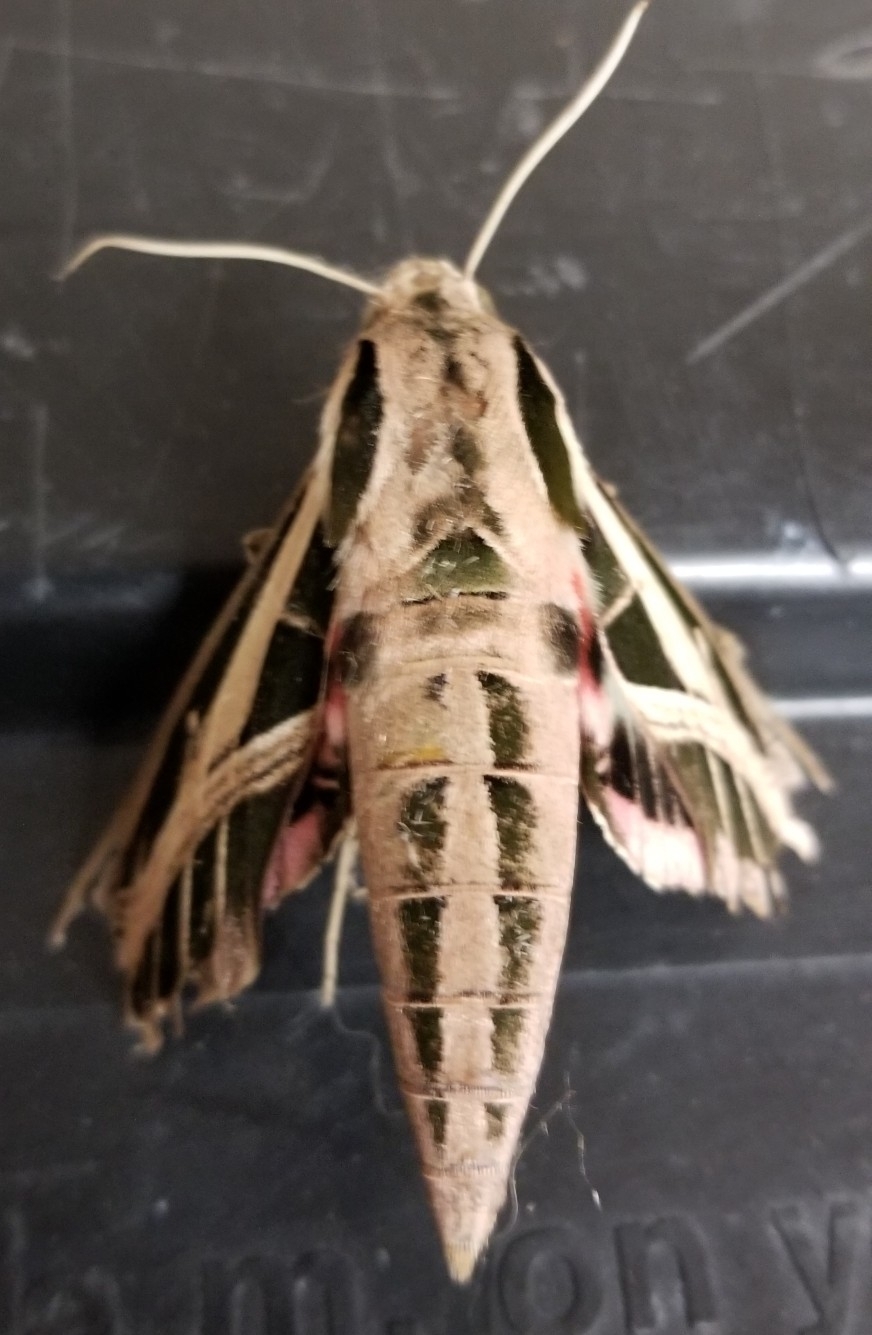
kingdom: Animalia
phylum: Arthropoda
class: Insecta
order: Lepidoptera
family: Sphingidae
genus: Eumorpha
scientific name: Eumorpha fasciatus
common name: Banded sphinx
